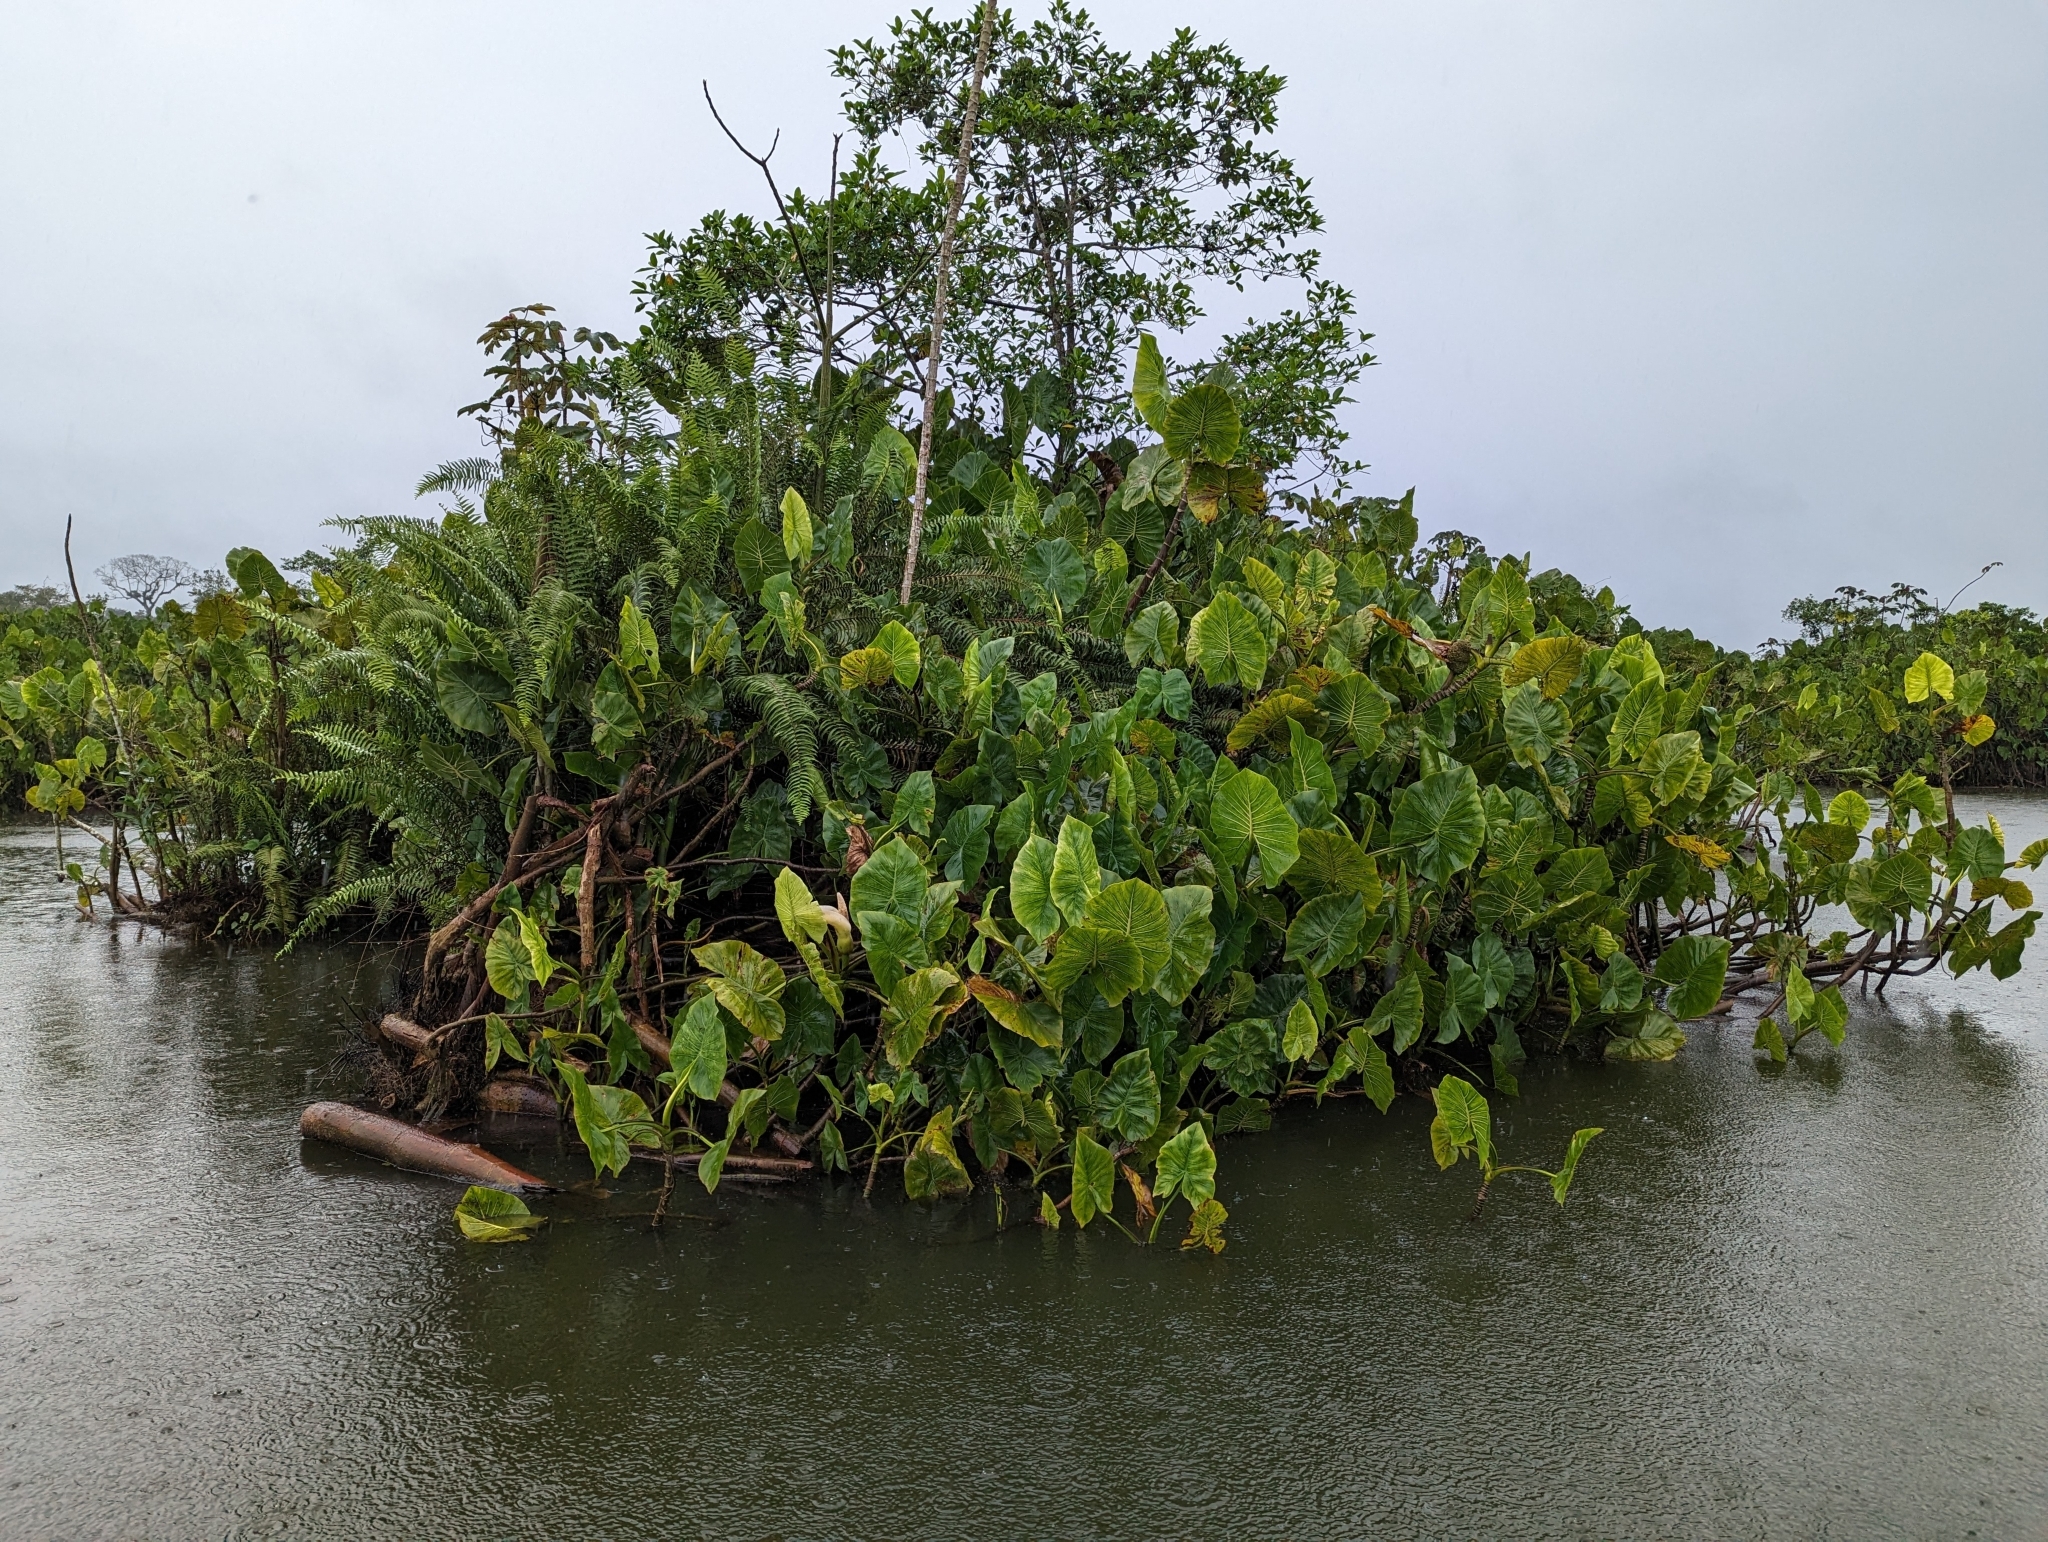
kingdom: Plantae
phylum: Tracheophyta
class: Liliopsida
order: Alismatales
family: Araceae
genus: Montrichardia
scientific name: Montrichardia linifera
